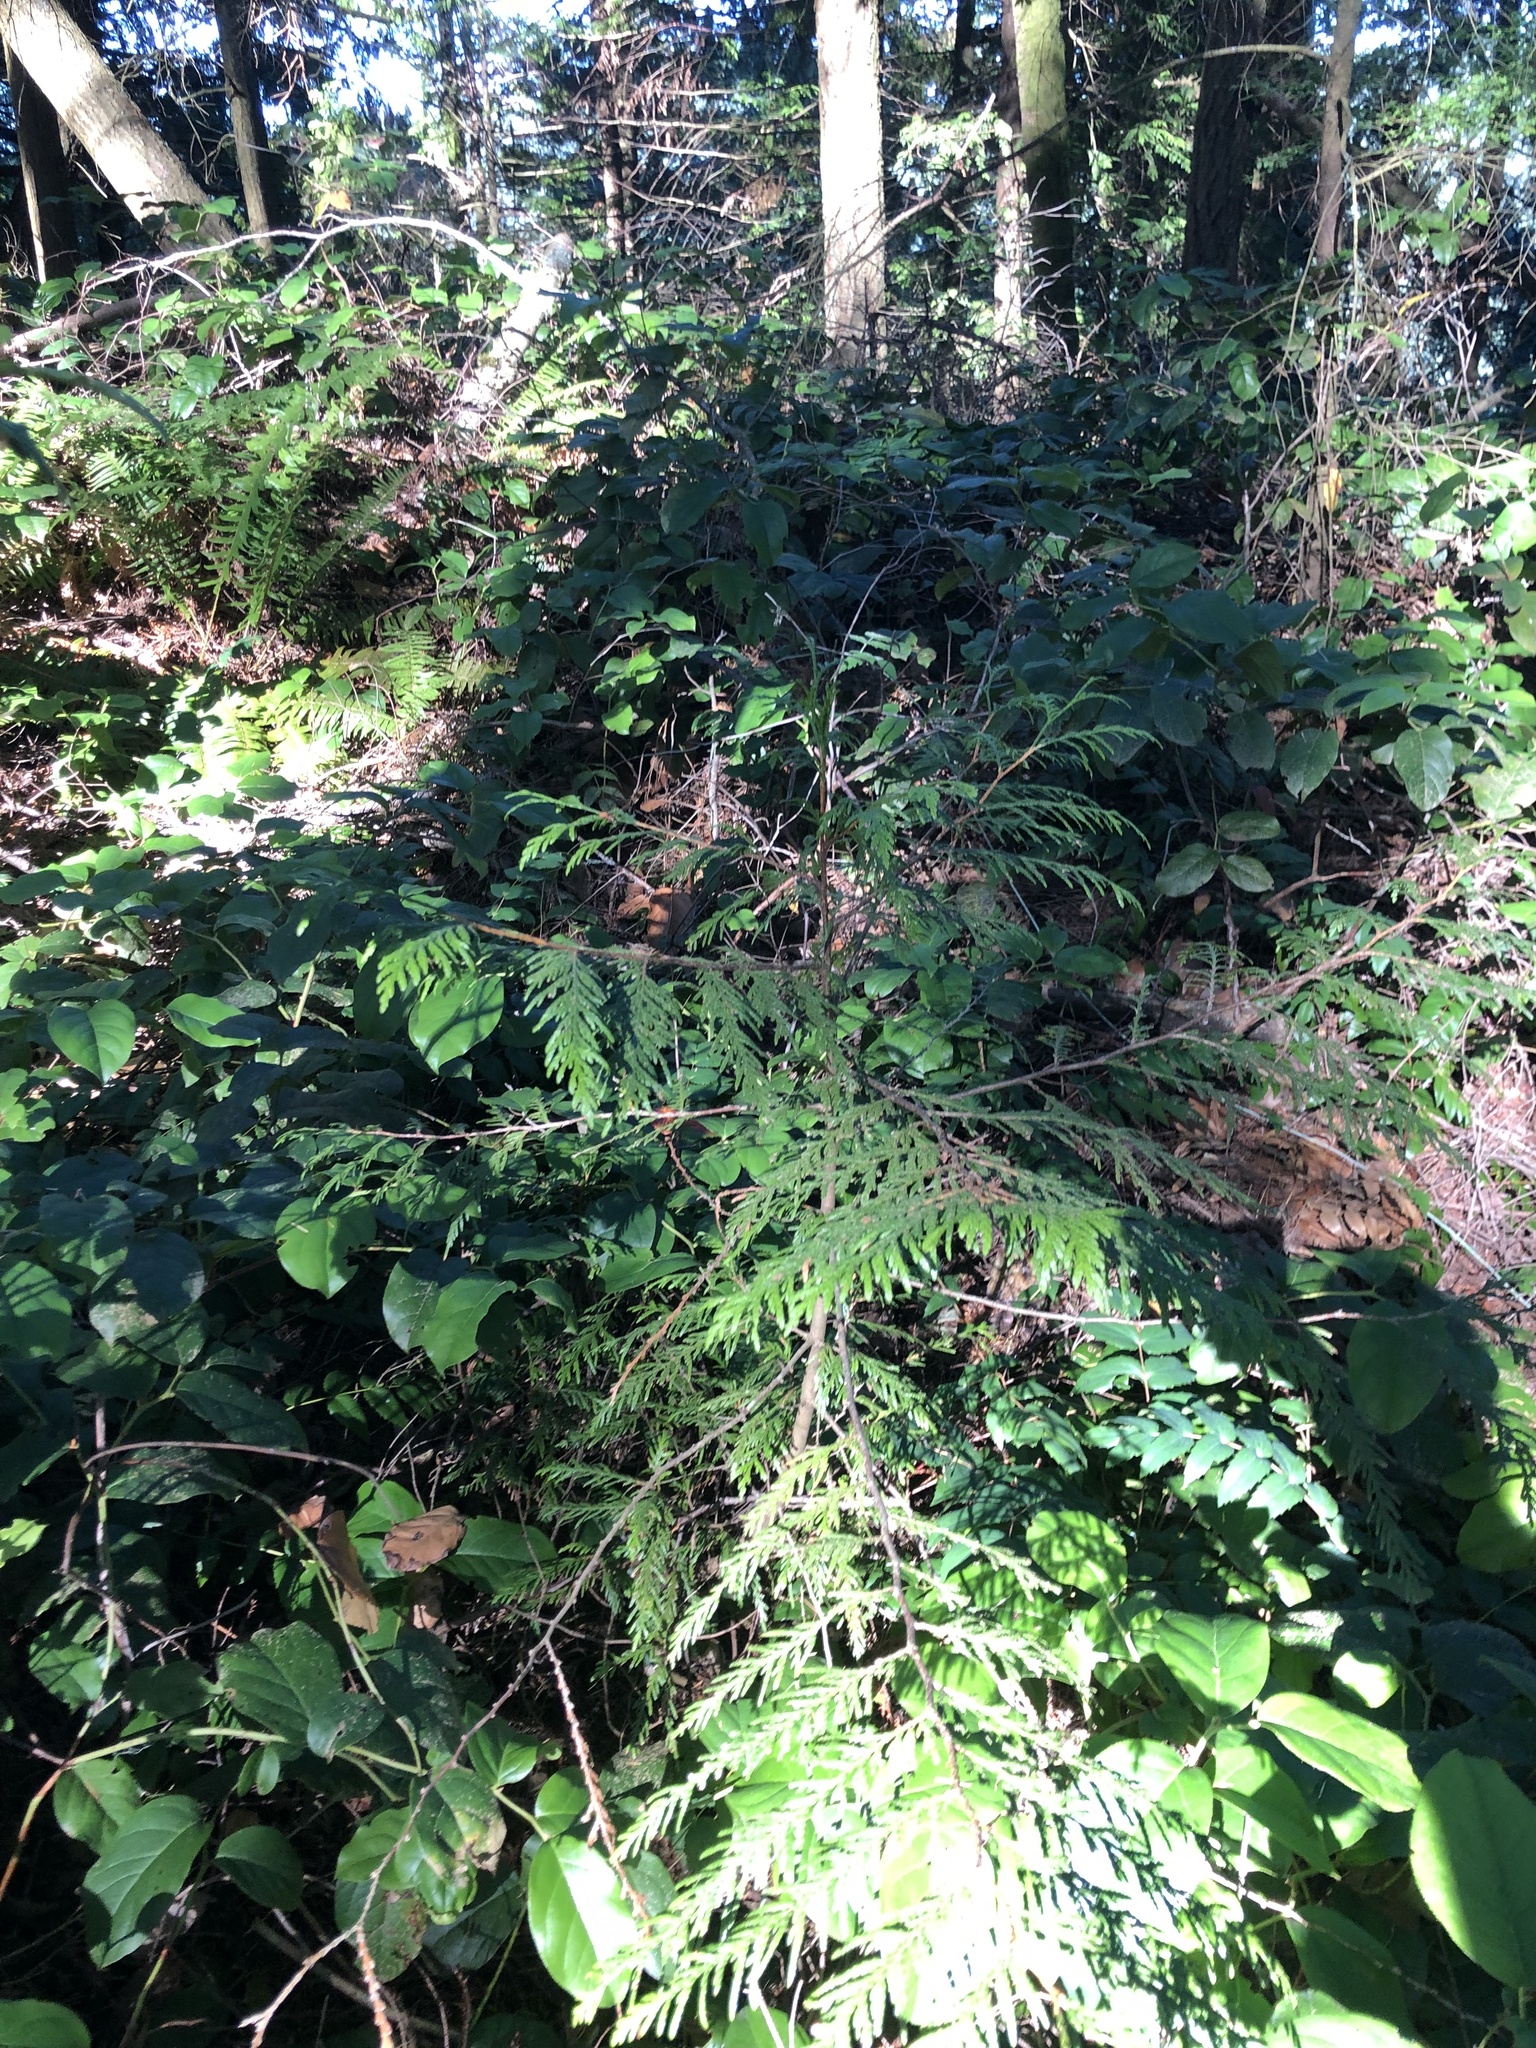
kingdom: Plantae
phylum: Tracheophyta
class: Pinopsida
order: Pinales
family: Cupressaceae
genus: Thuja
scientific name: Thuja plicata
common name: Western red-cedar
